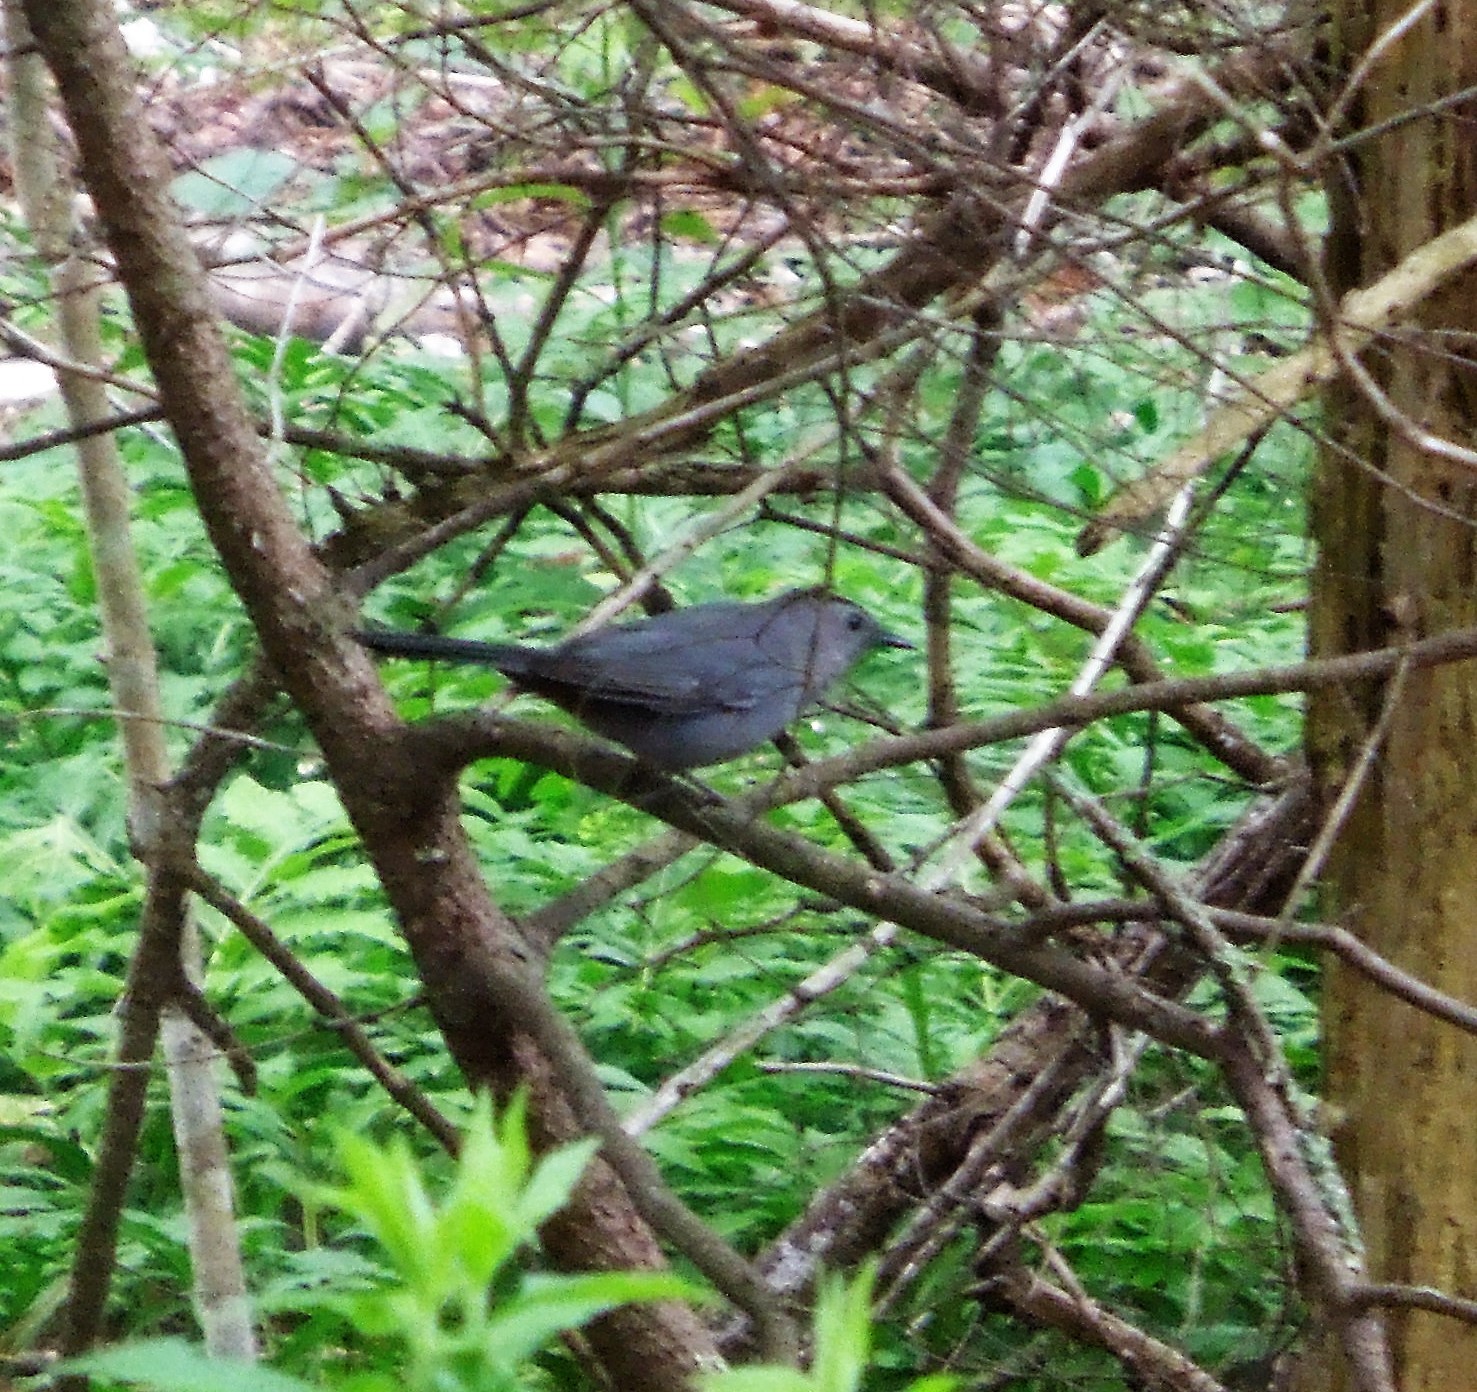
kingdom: Animalia
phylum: Chordata
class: Aves
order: Passeriformes
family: Mimidae
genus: Dumetella
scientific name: Dumetella carolinensis
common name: Gray catbird
